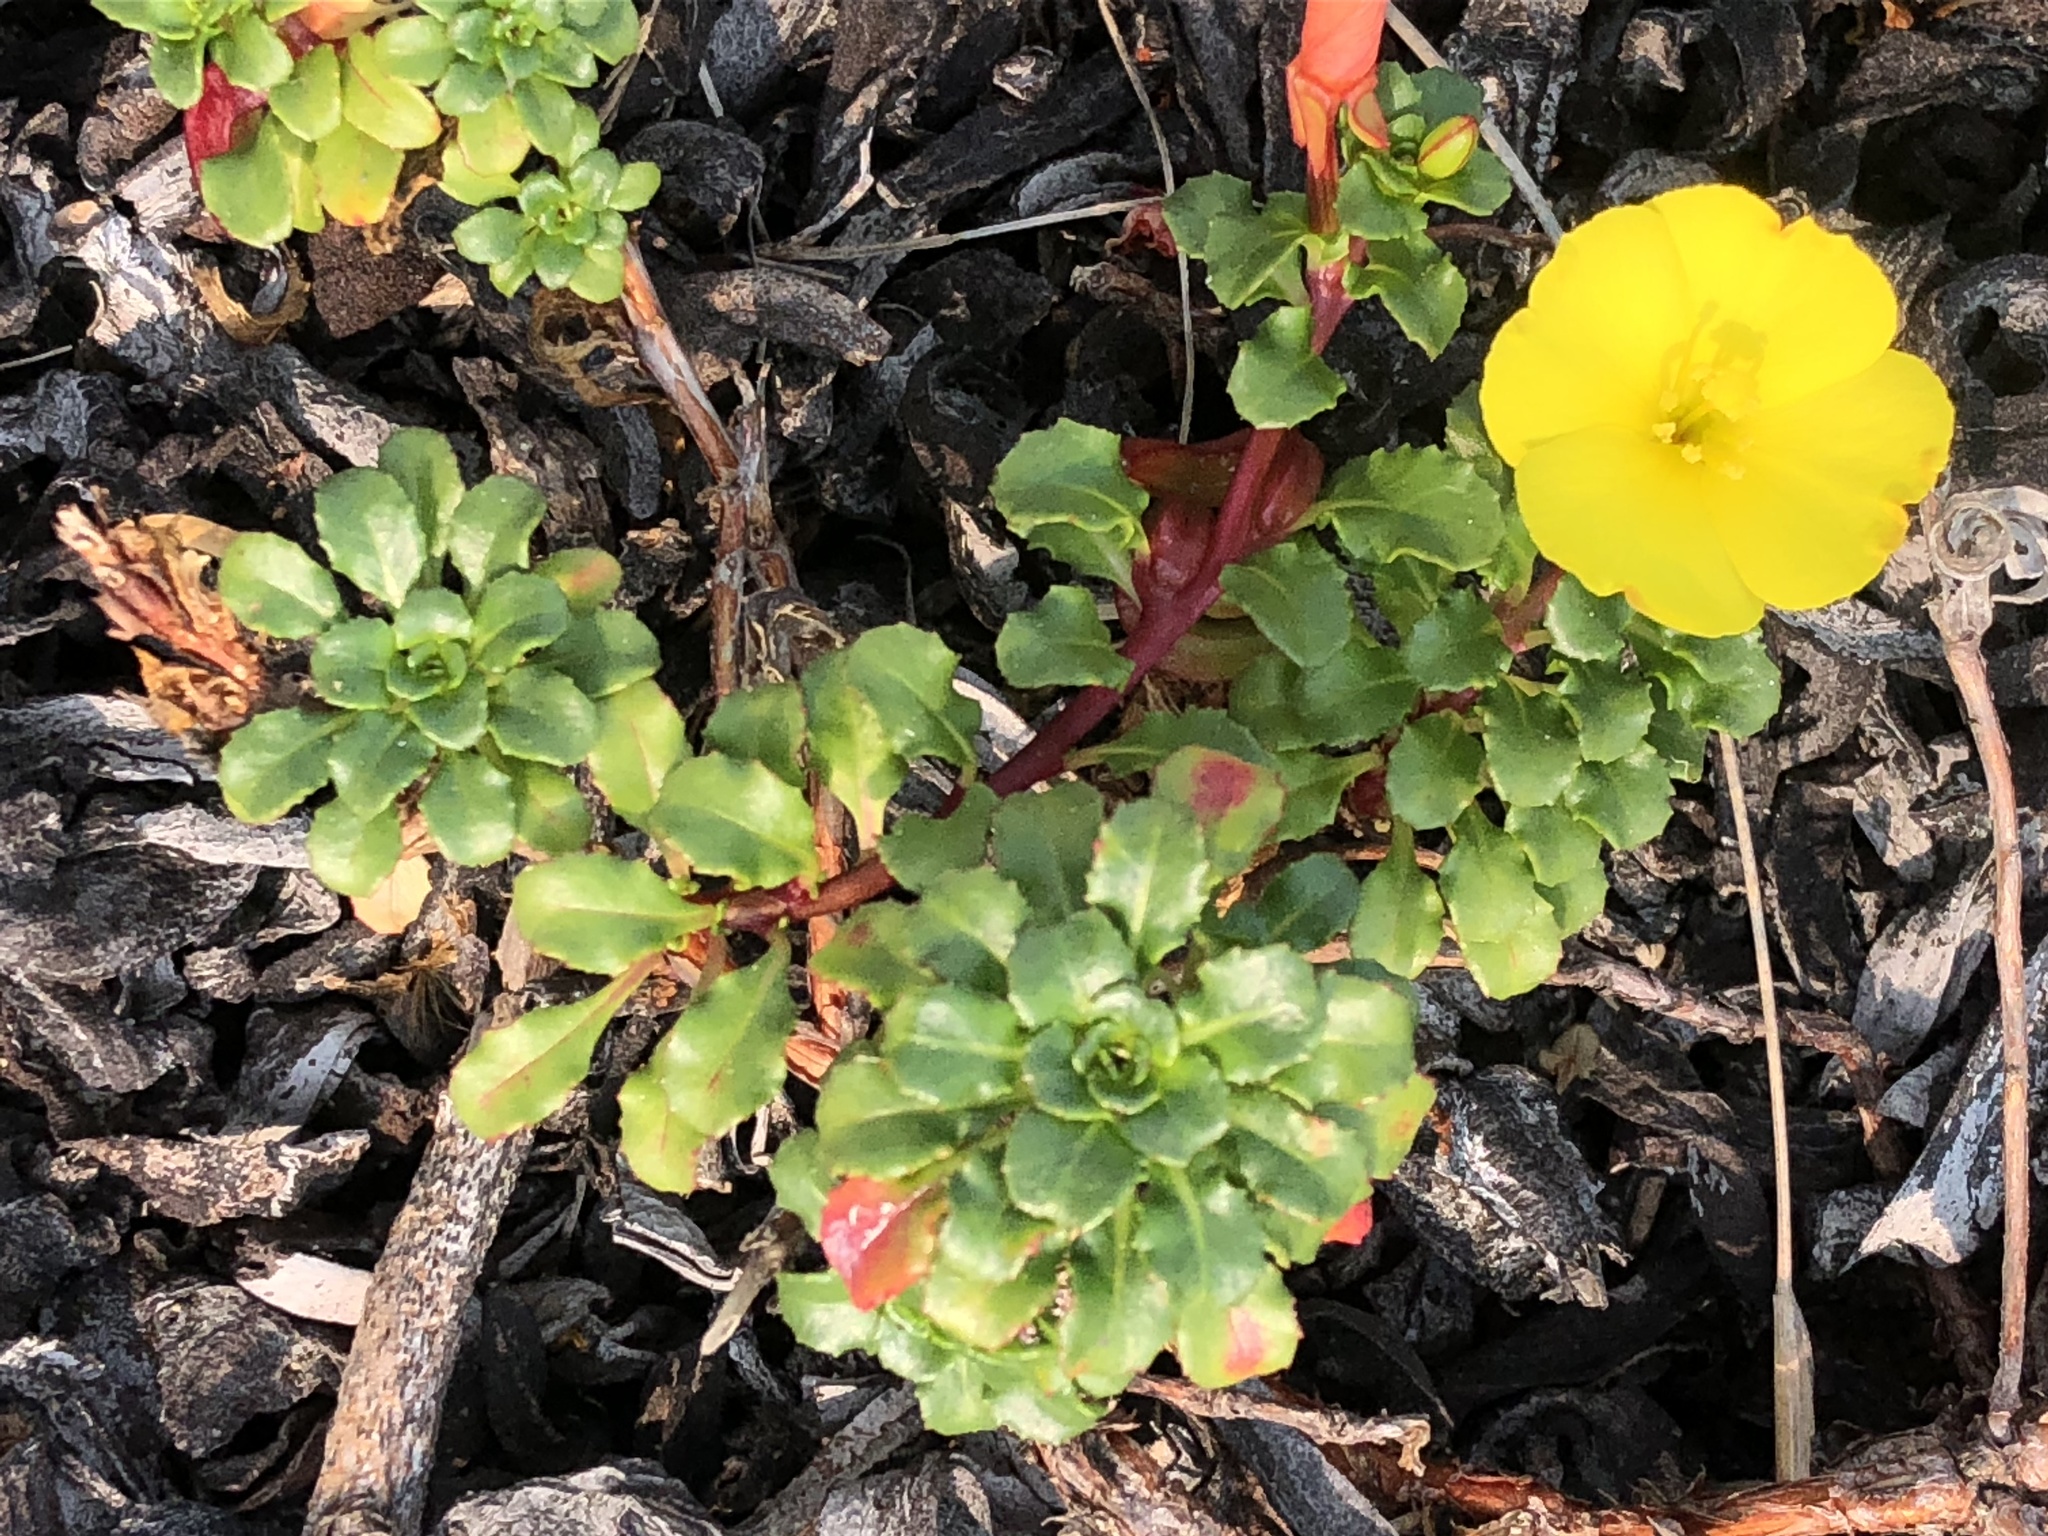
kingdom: Plantae
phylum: Tracheophyta
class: Magnoliopsida
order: Myrtales
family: Onagraceae
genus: Camissoniopsis
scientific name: Camissoniopsis cheiranthifolia
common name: Beach suncup
